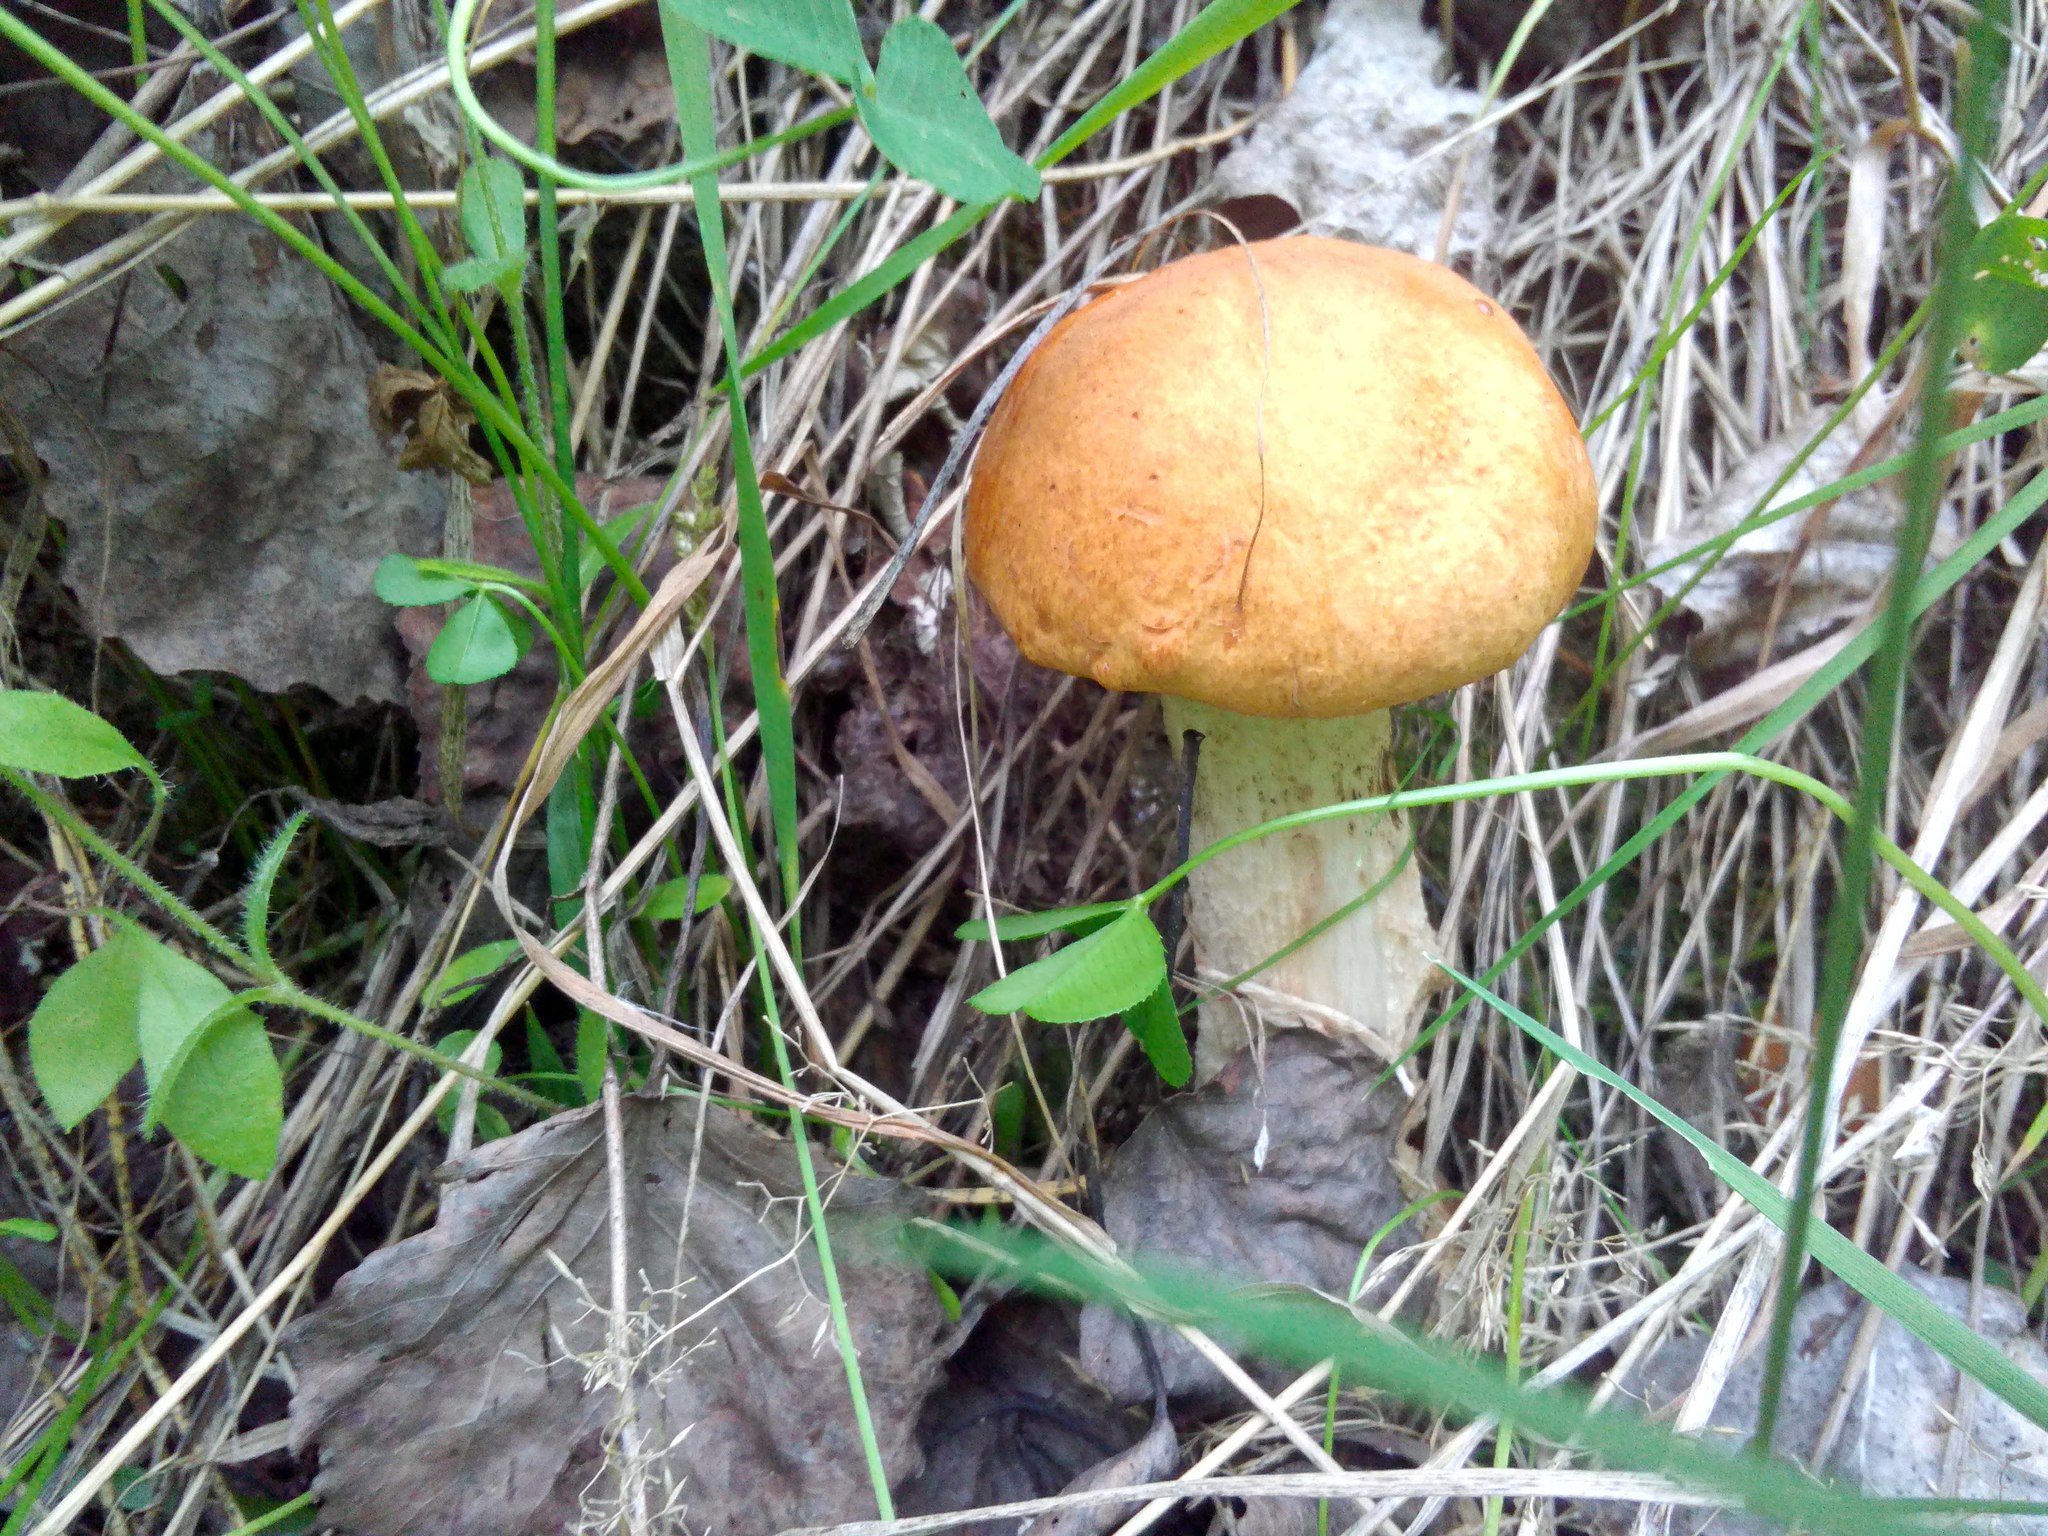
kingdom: Fungi
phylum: Basidiomycota
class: Agaricomycetes
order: Boletales
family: Boletaceae
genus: Leccinum
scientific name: Leccinum albostipitatum
